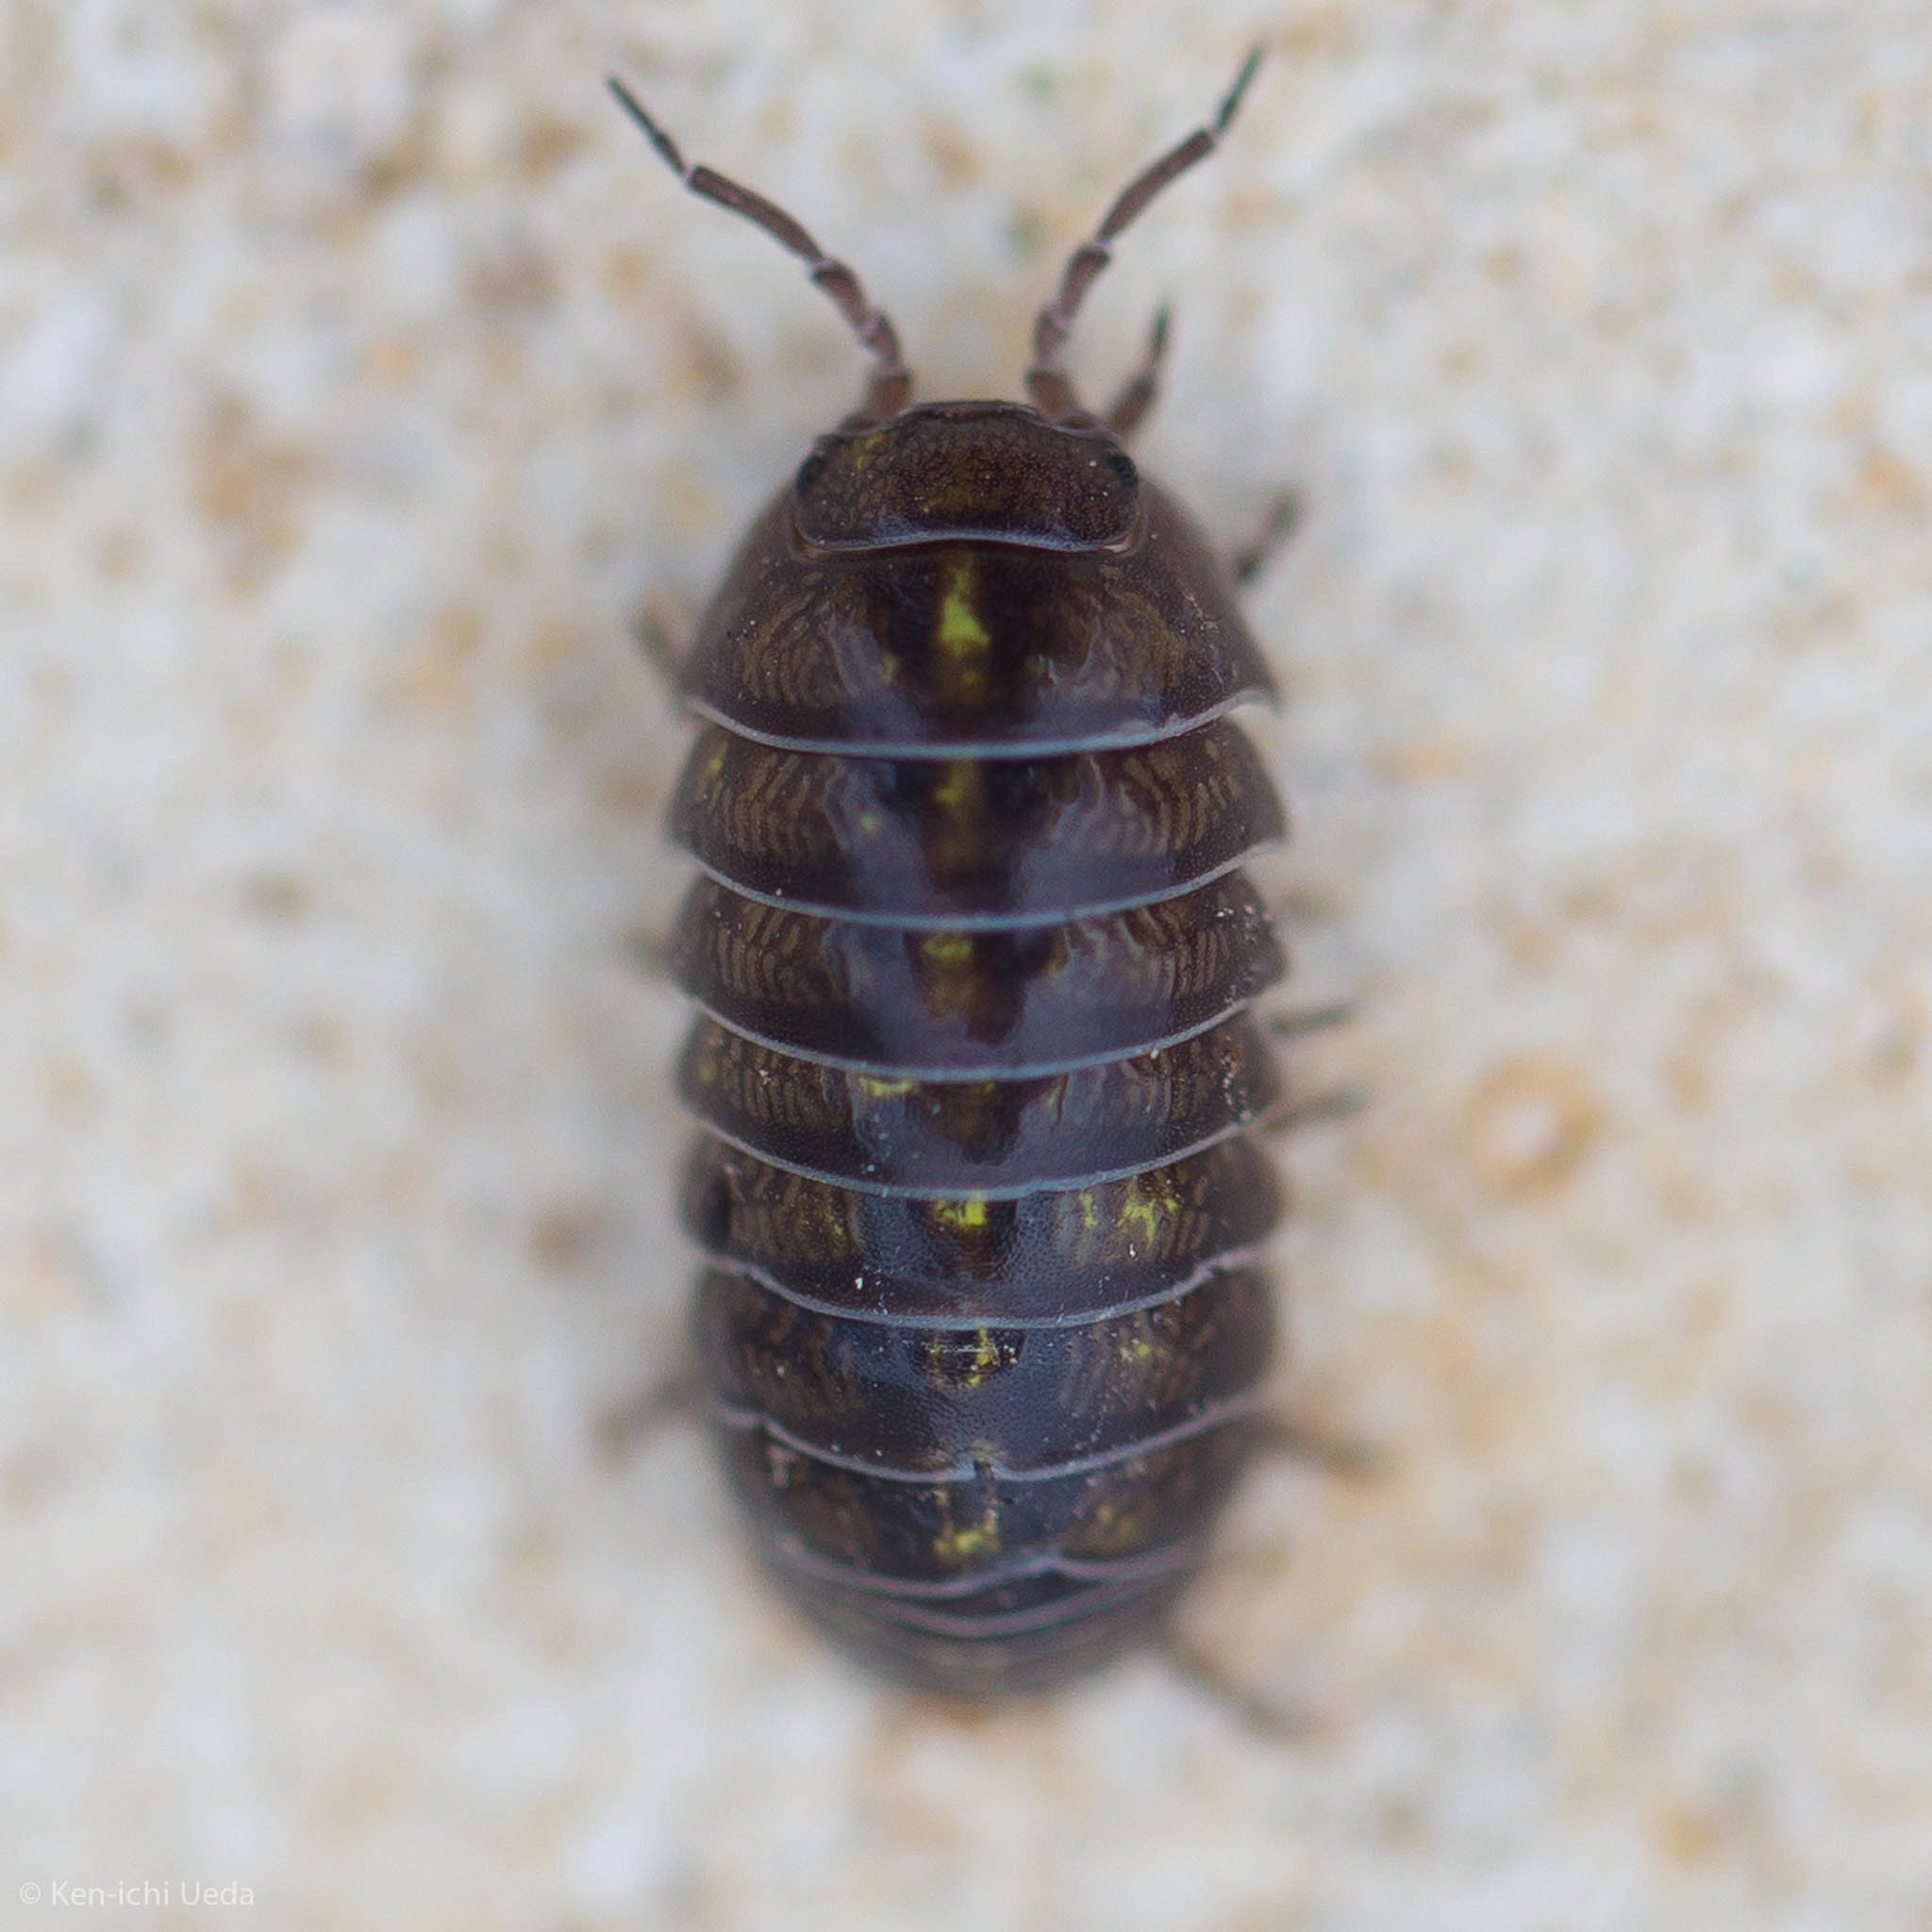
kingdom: Animalia
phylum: Arthropoda
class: Malacostraca
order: Isopoda
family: Armadillidiidae
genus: Armadillidium
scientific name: Armadillidium vulgare
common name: Common pill woodlouse
